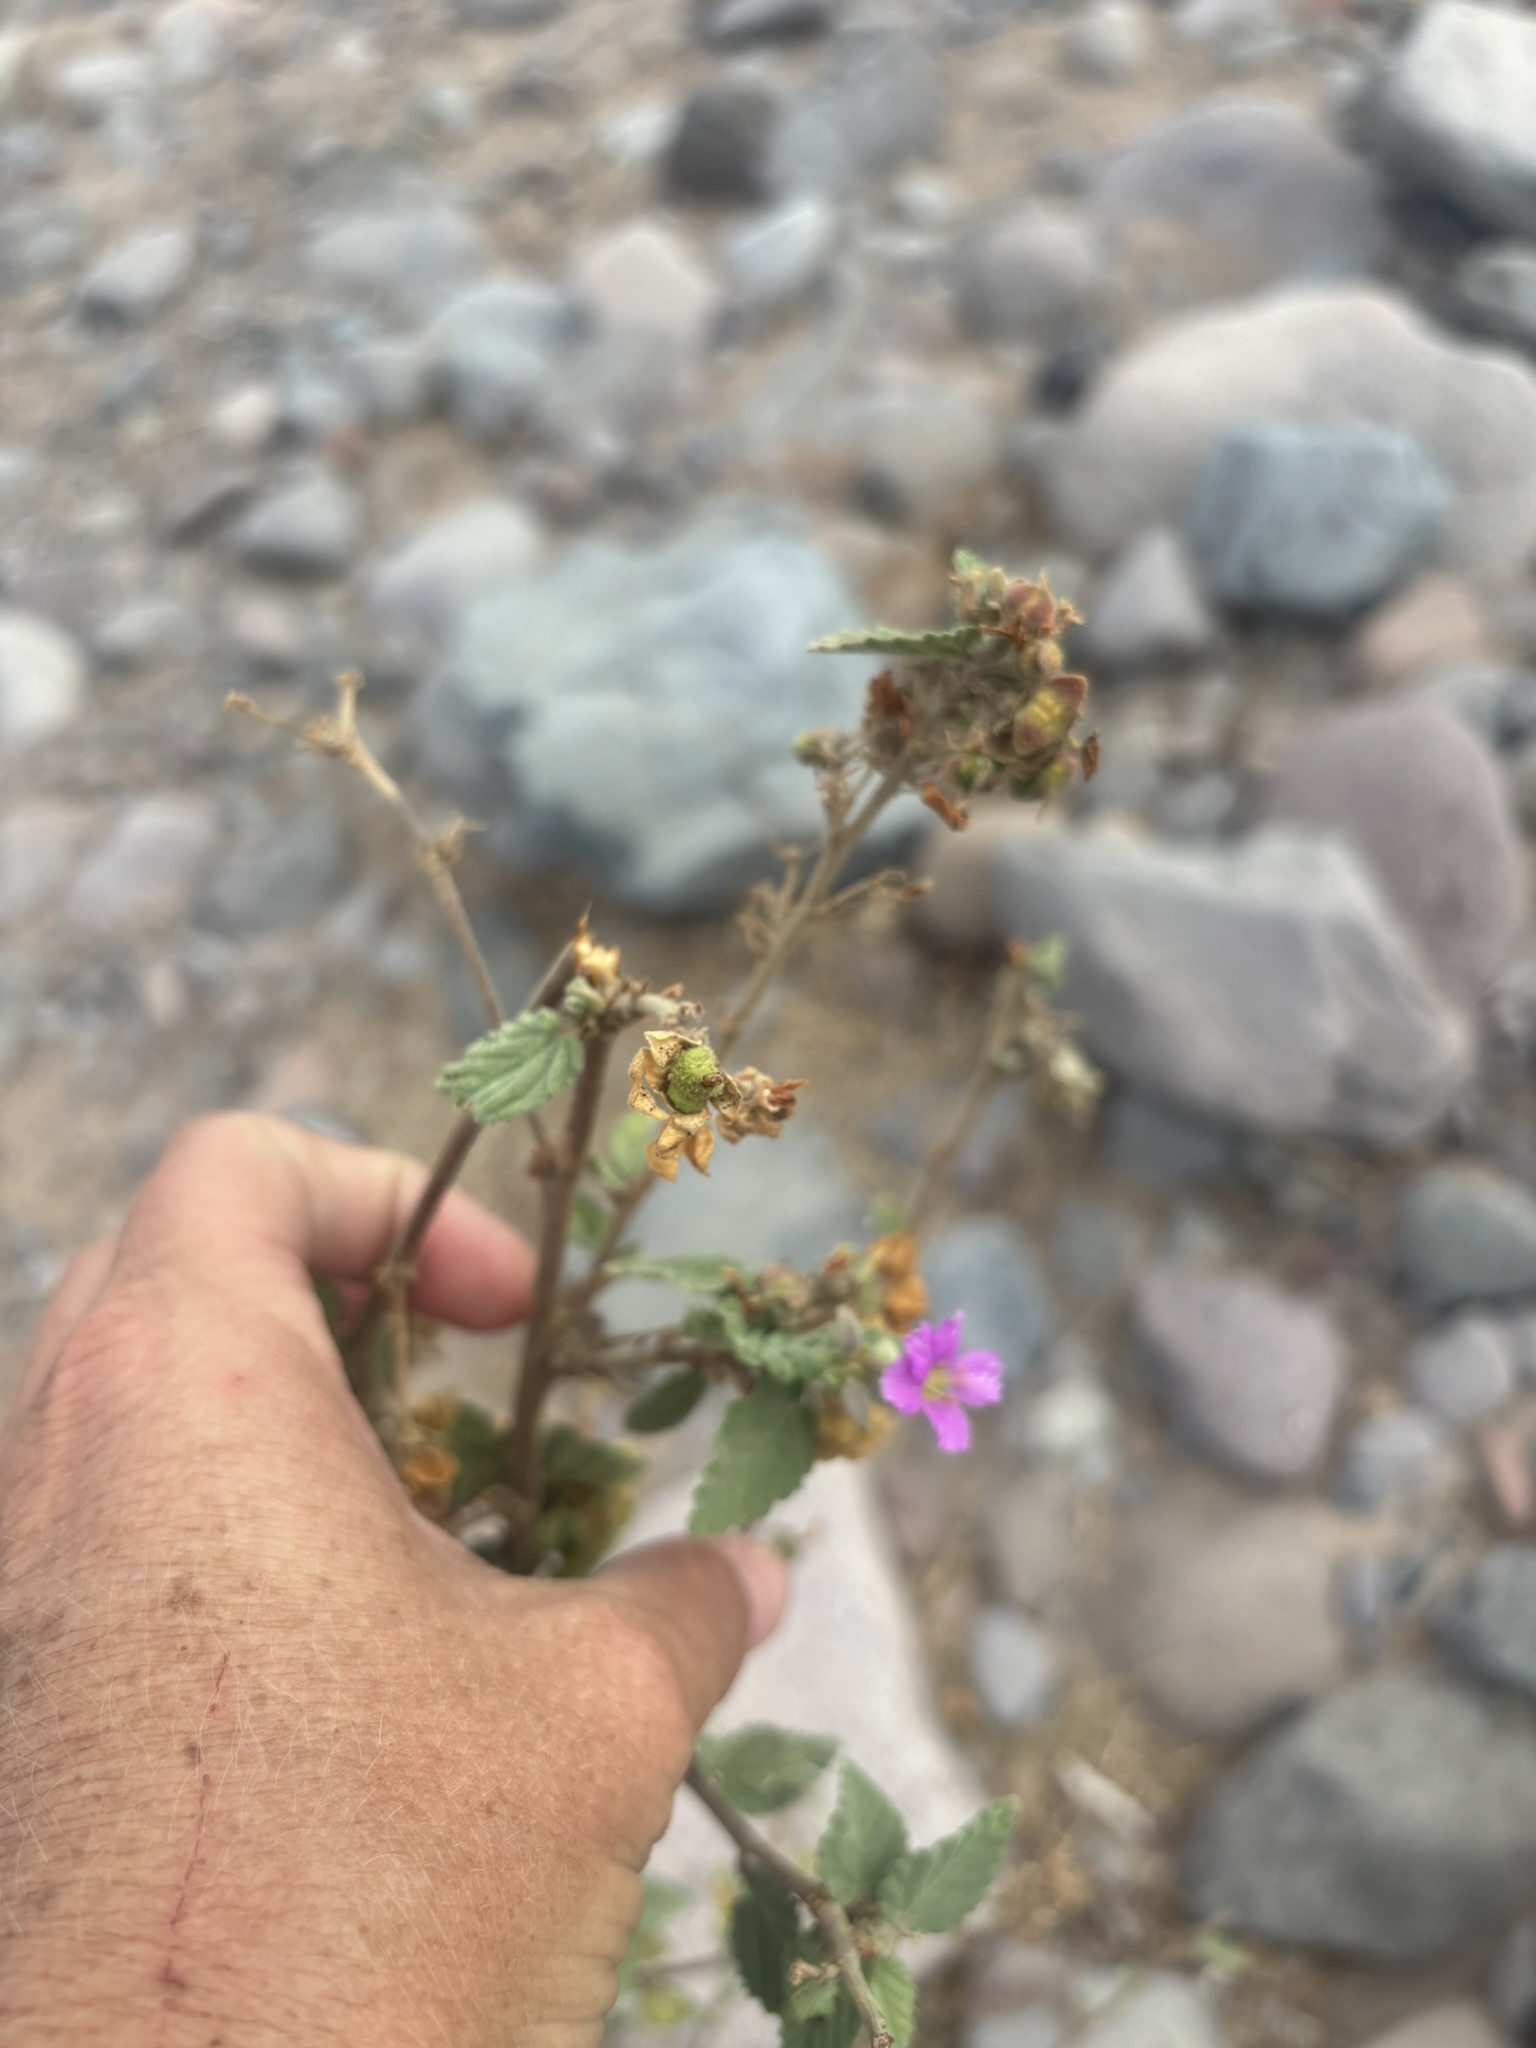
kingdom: Plantae
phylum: Tracheophyta
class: Magnoliopsida
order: Malvales
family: Malvaceae
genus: Melochia
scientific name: Melochia tomentosa
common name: Black torch
